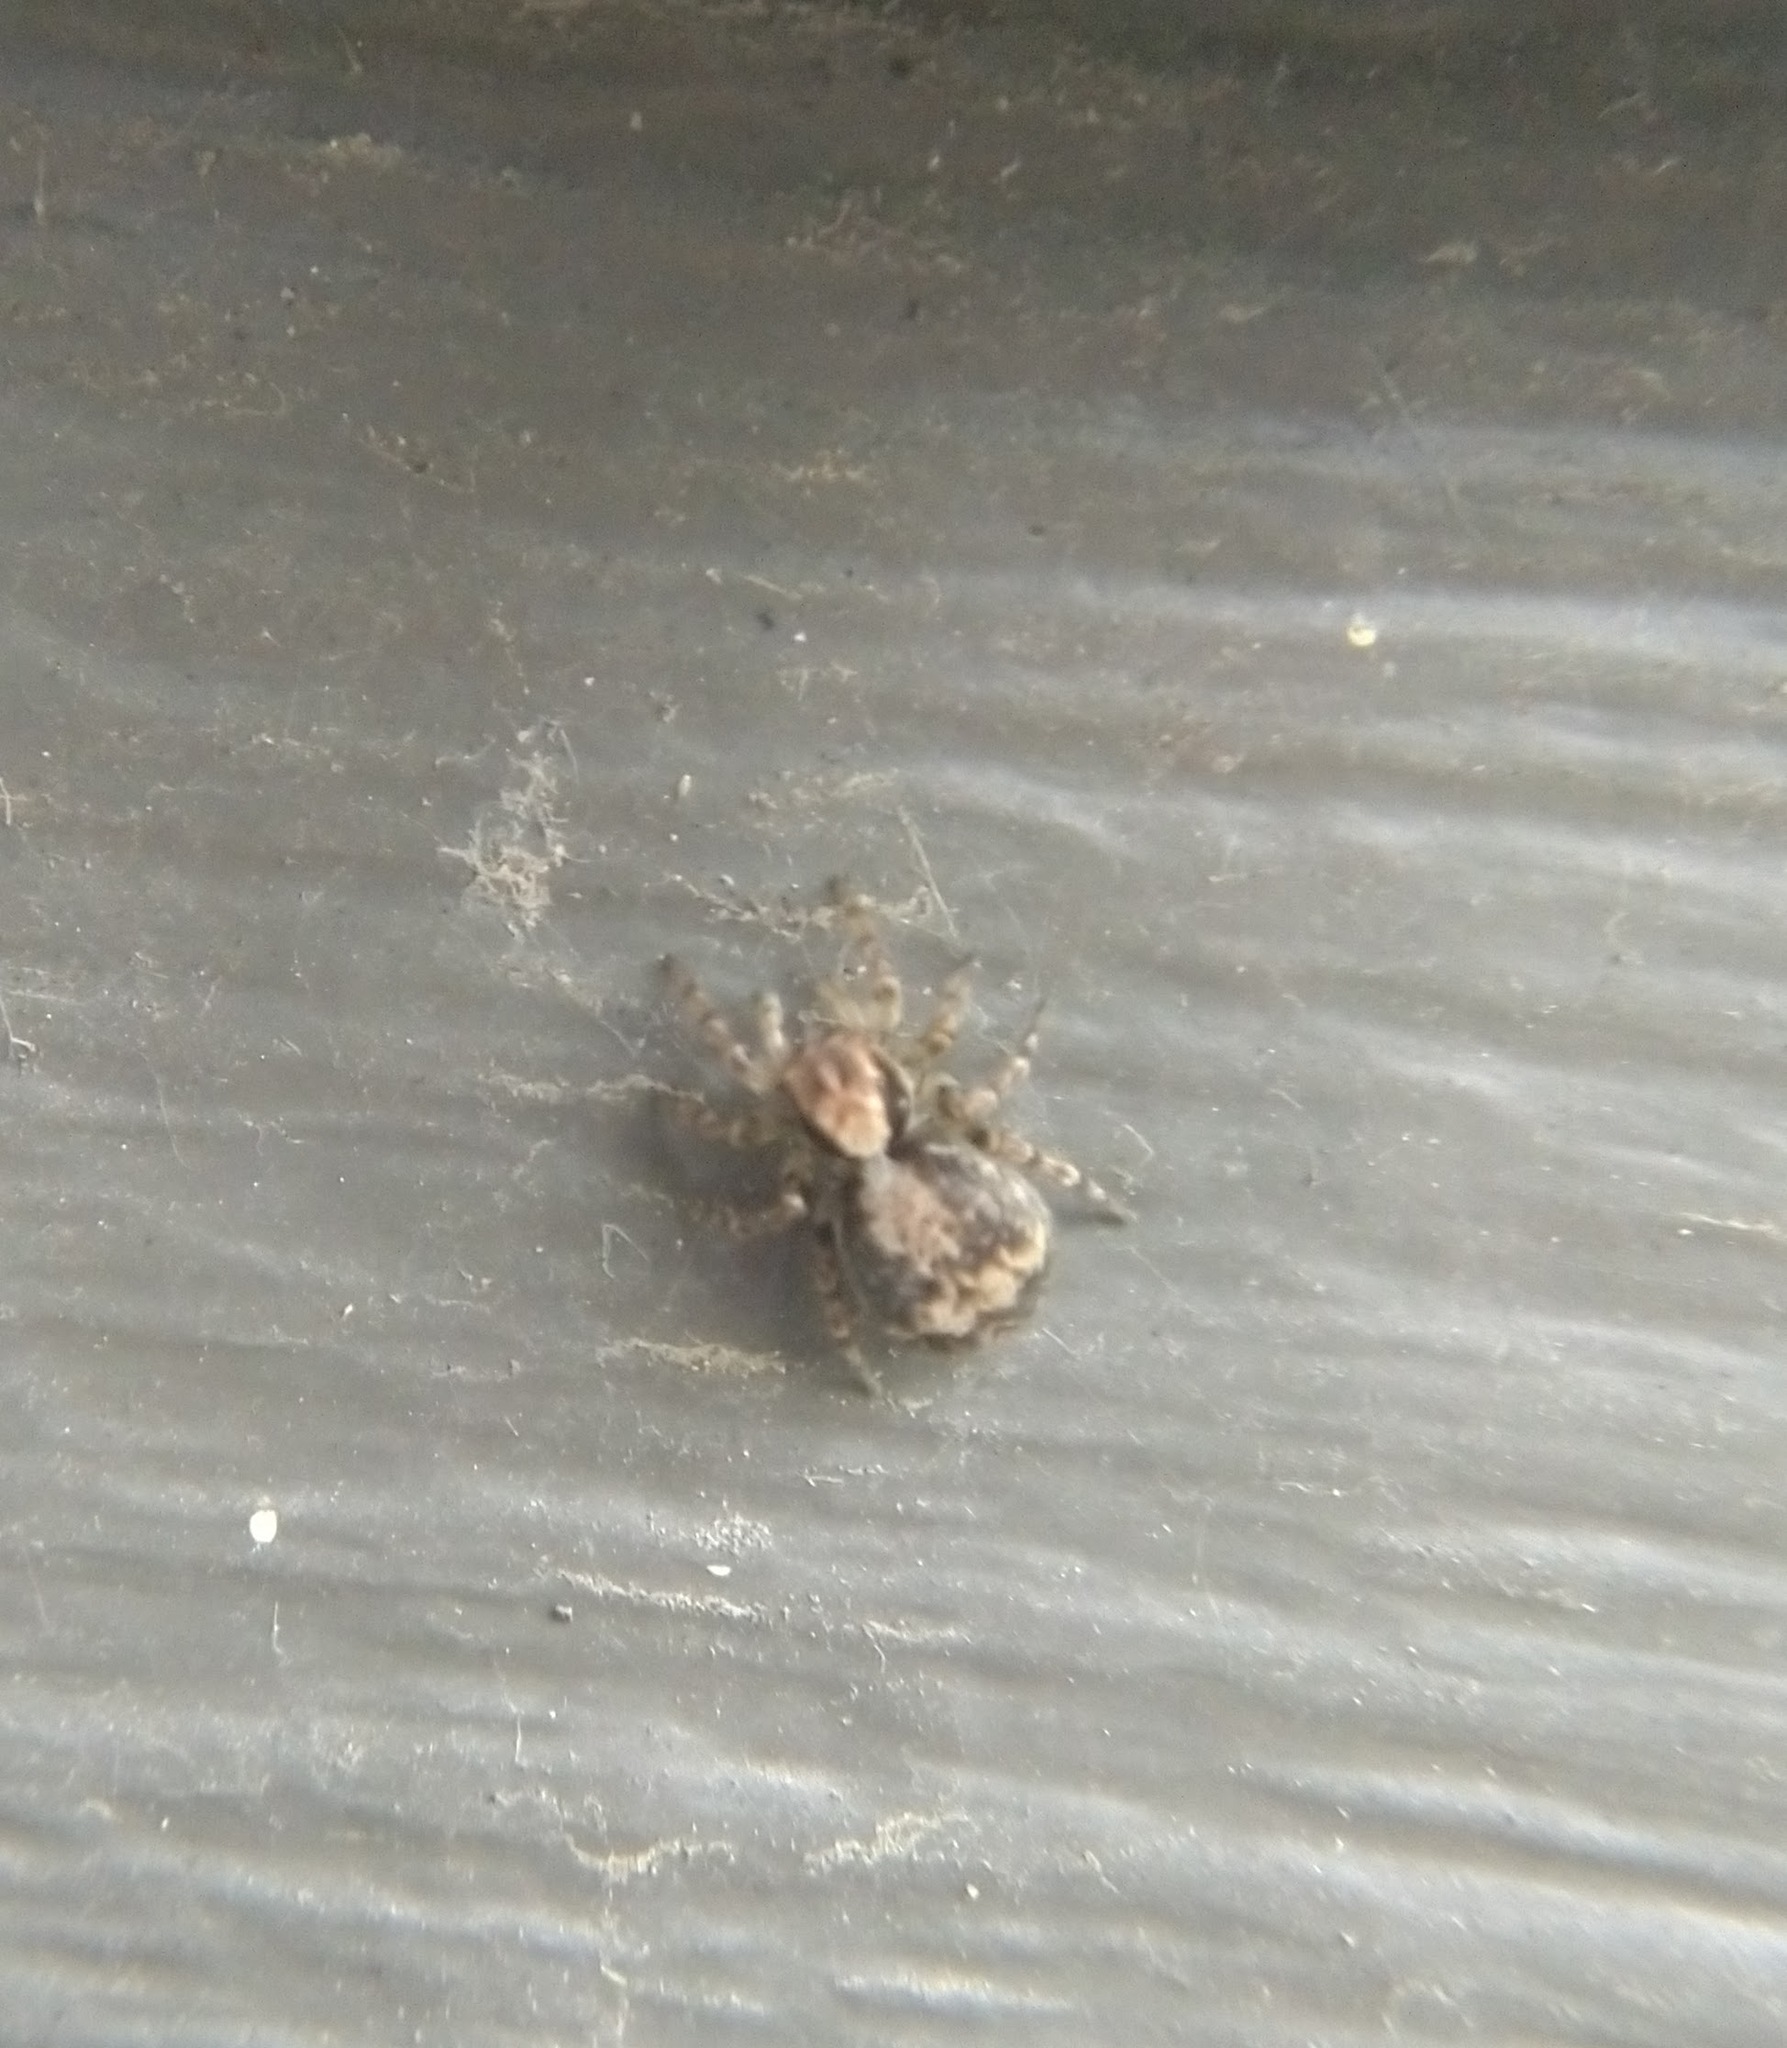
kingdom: Animalia
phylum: Arthropoda
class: Arachnida
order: Araneae
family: Salticidae
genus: Naphrys
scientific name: Naphrys pulex
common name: Flea jumping spider
